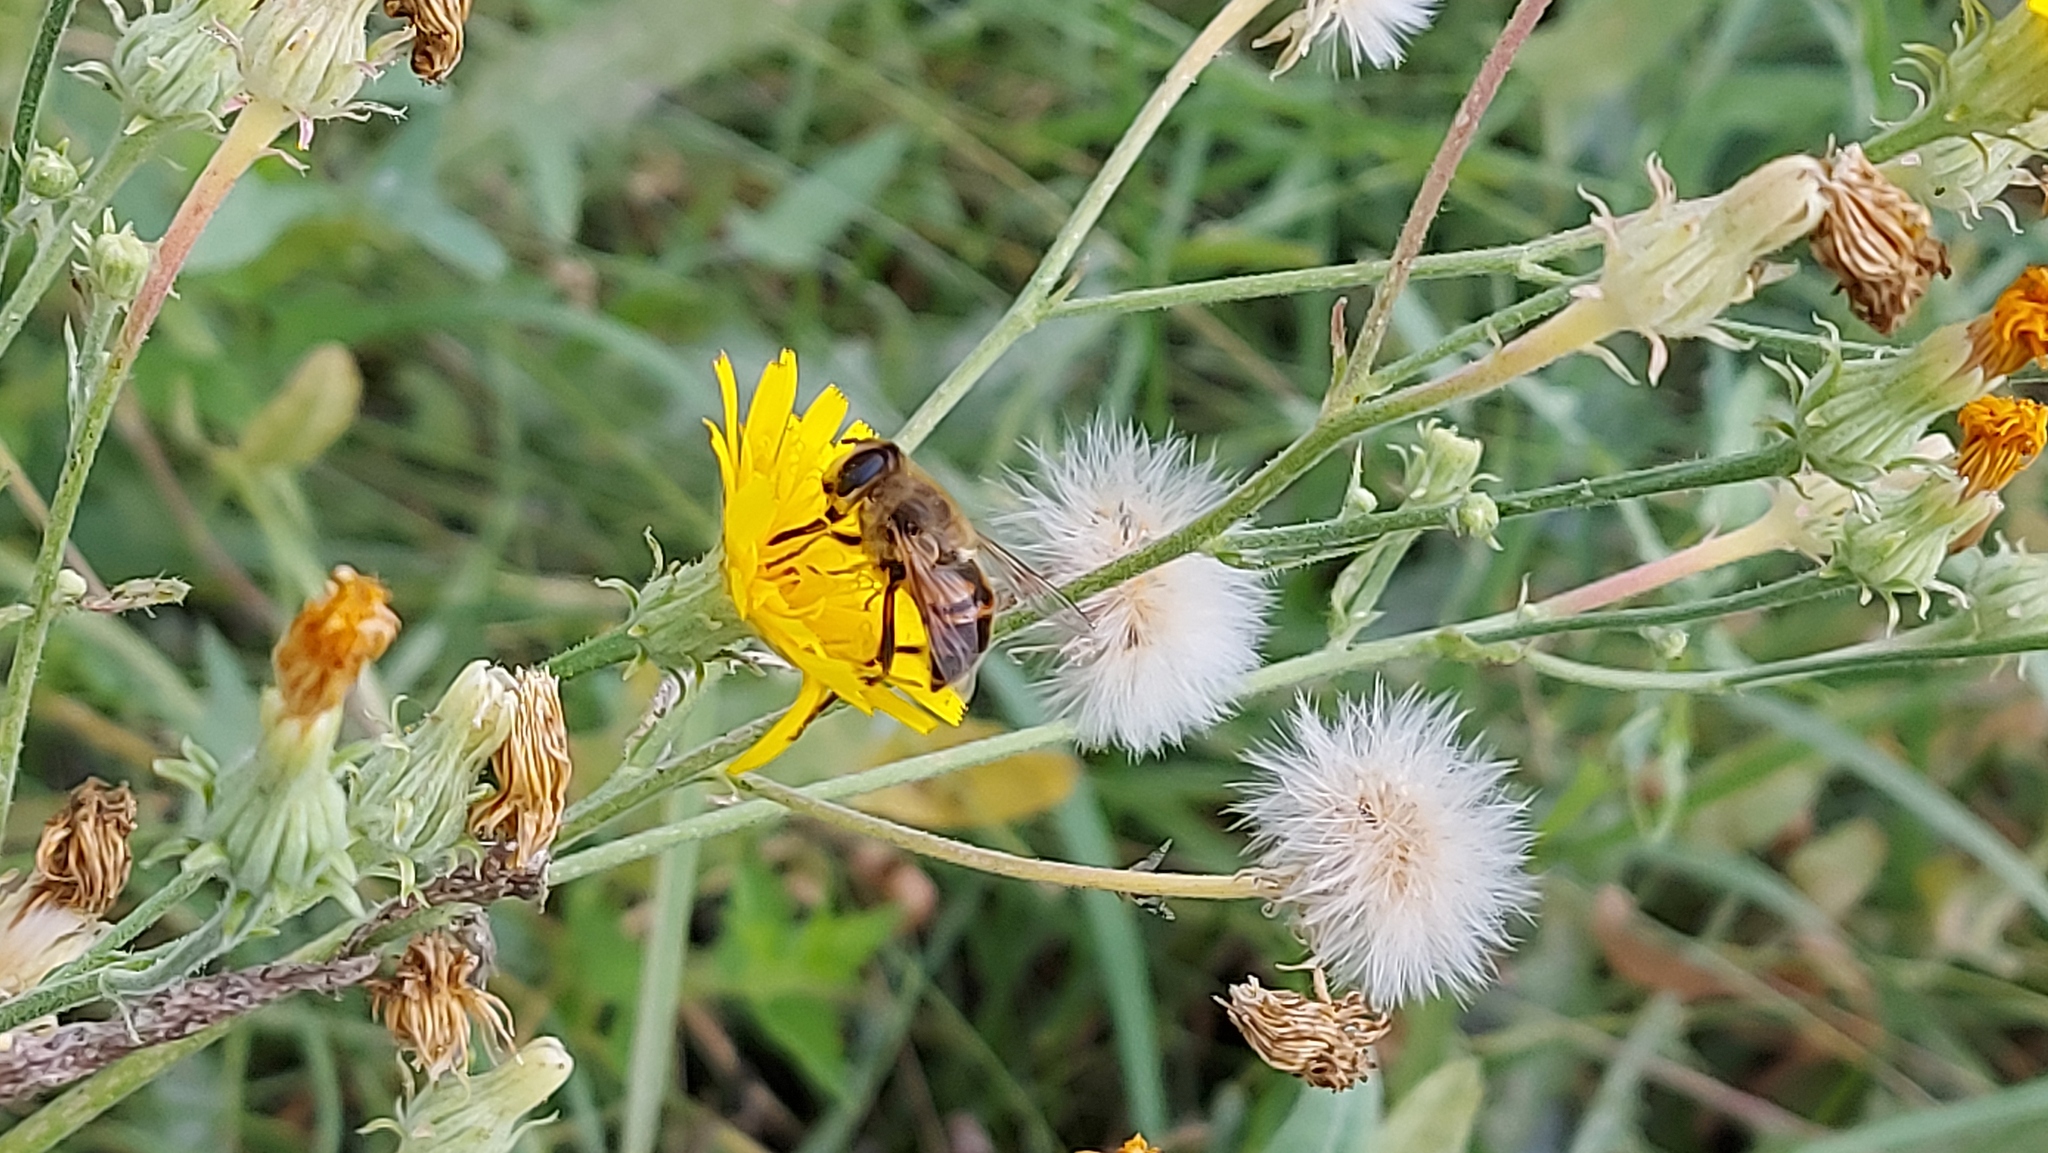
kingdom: Animalia
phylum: Arthropoda
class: Insecta
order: Diptera
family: Syrphidae
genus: Eristalis
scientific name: Eristalis tenax
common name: Drone fly
